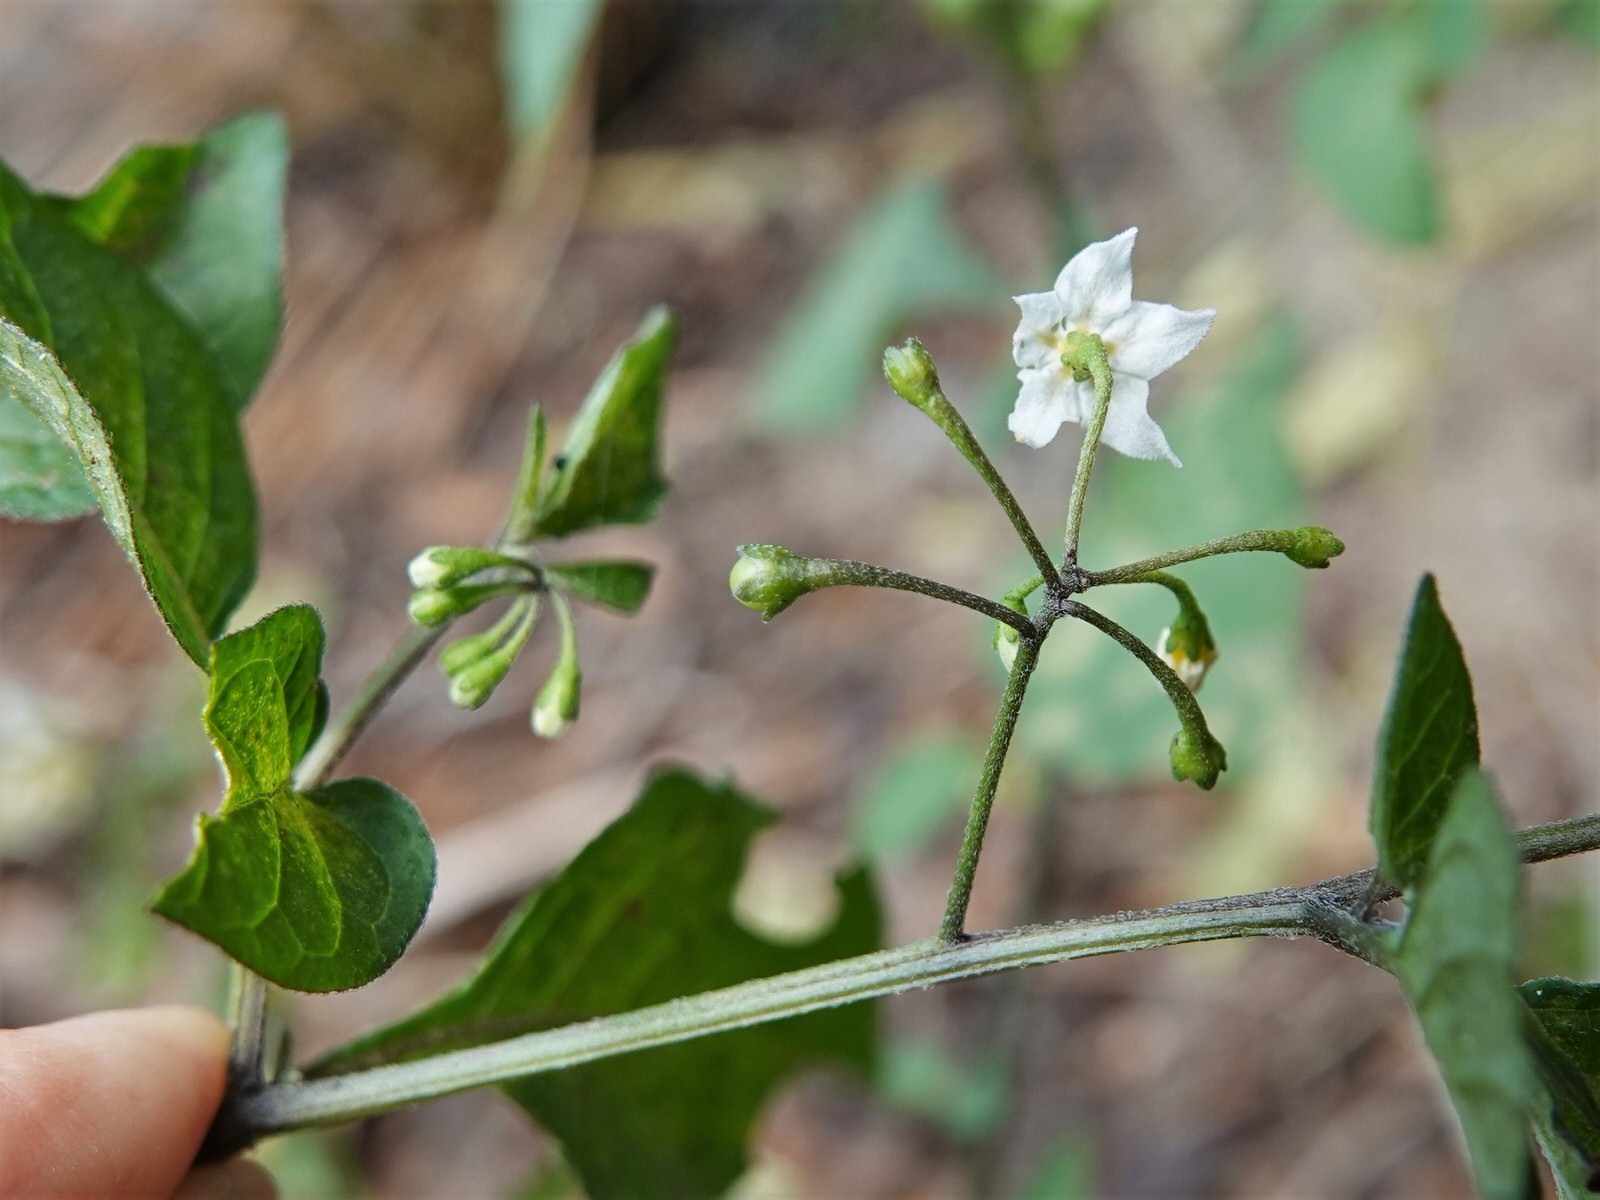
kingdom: Plantae
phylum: Tracheophyta
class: Magnoliopsida
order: Solanales
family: Solanaceae
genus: Solanum
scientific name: Solanum nigrum
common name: Black nightshade
